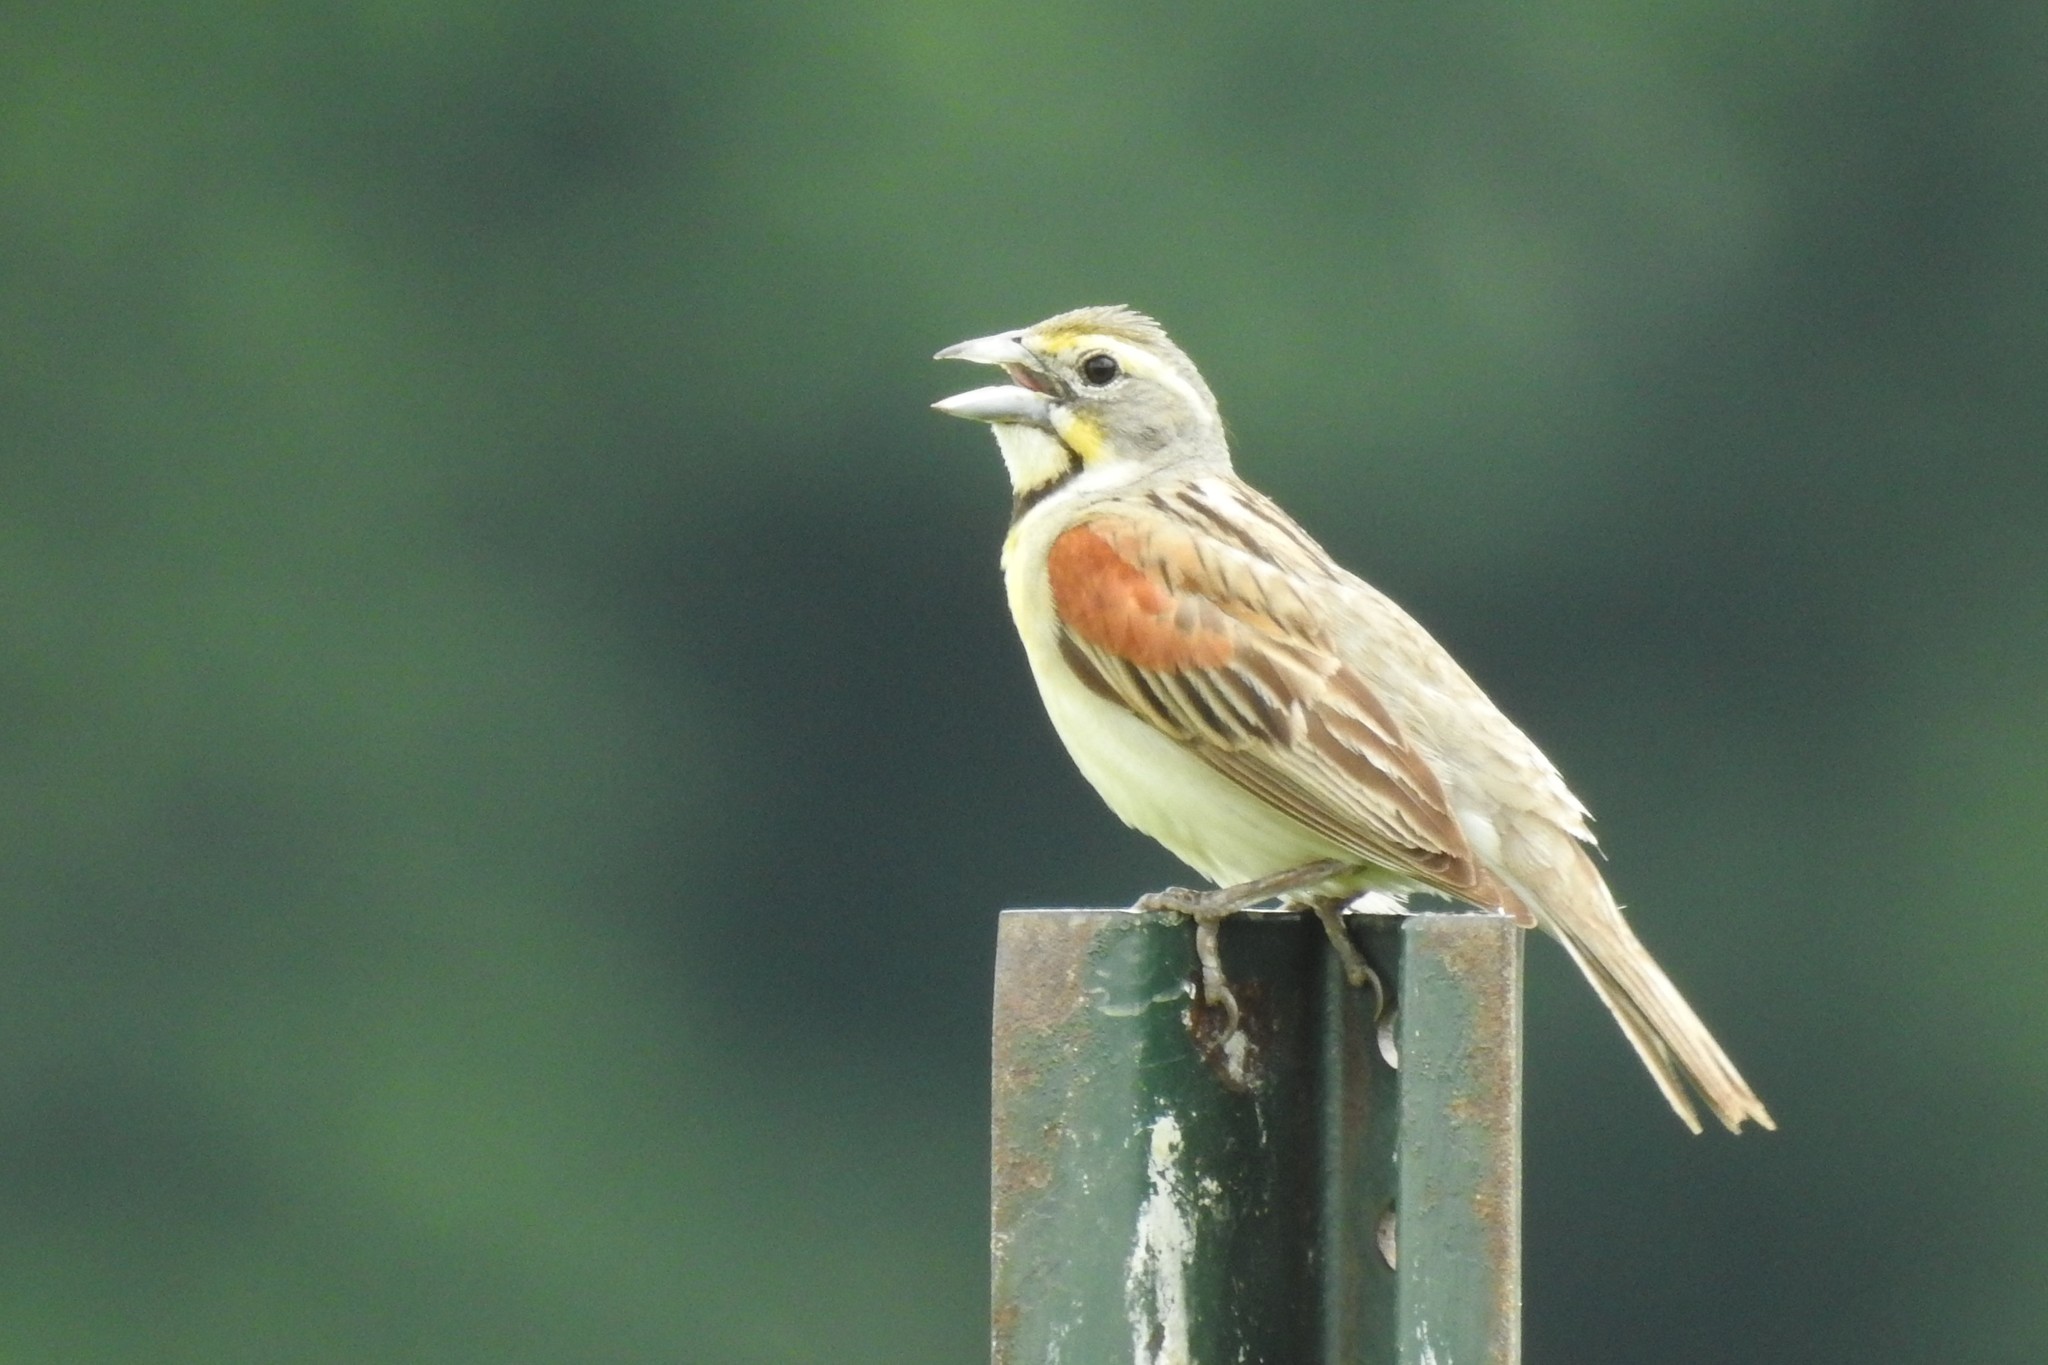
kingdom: Animalia
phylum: Chordata
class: Aves
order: Passeriformes
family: Cardinalidae
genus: Spiza
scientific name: Spiza americana
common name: Dickcissel
